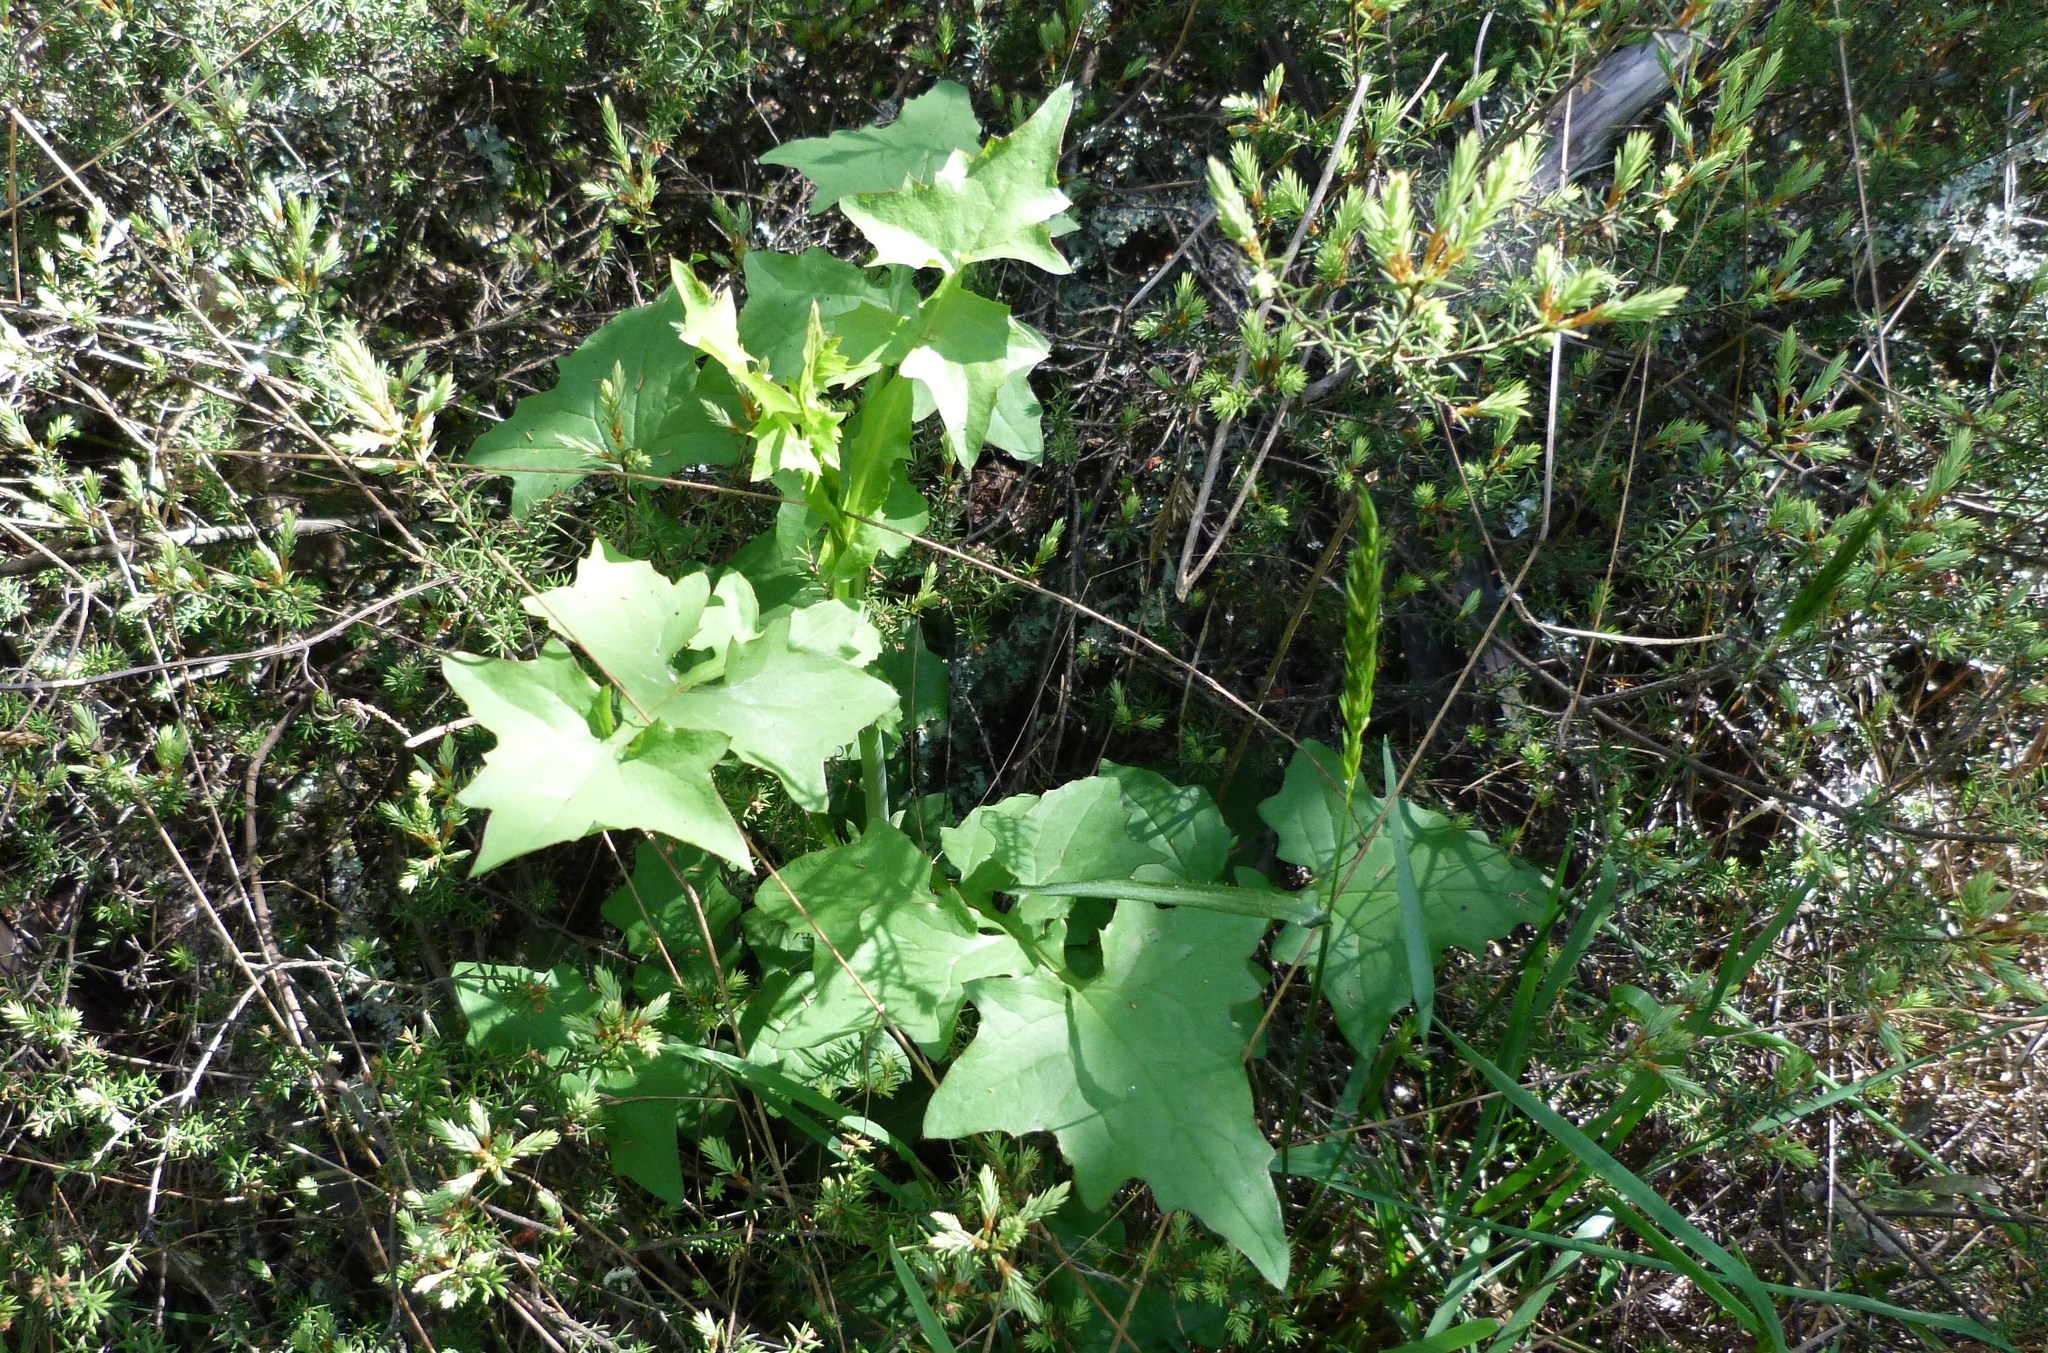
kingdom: Plantae
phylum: Tracheophyta
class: Magnoliopsida
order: Asterales
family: Asteraceae
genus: Mycelis
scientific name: Mycelis muralis
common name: Wall lettuce
